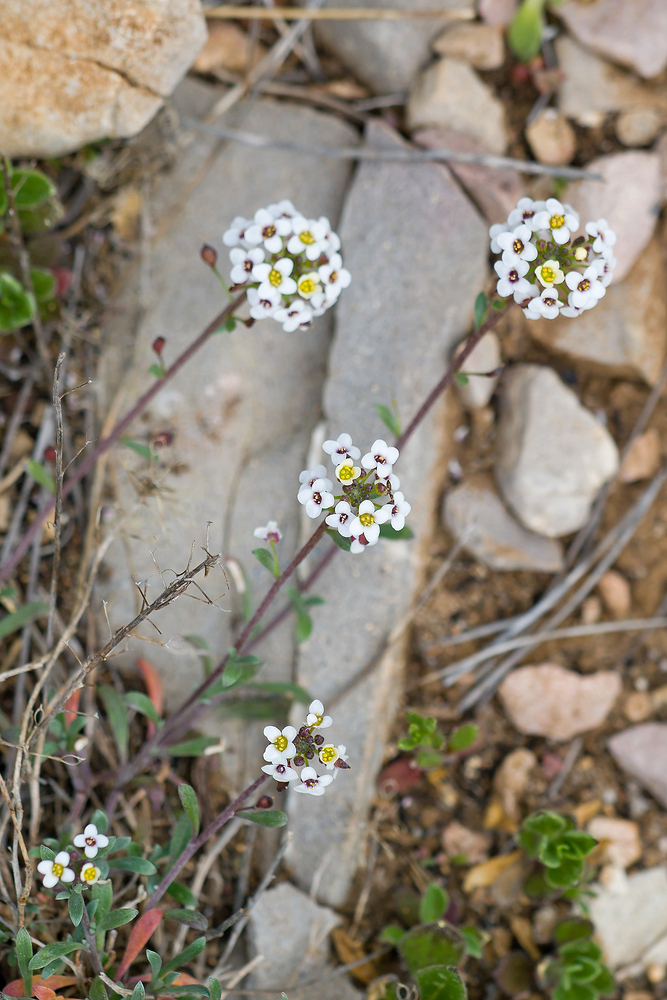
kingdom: Plantae
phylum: Tracheophyta
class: Magnoliopsida
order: Brassicales
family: Brassicaceae
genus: Lobularia
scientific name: Lobularia maritima
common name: Sweet alison
